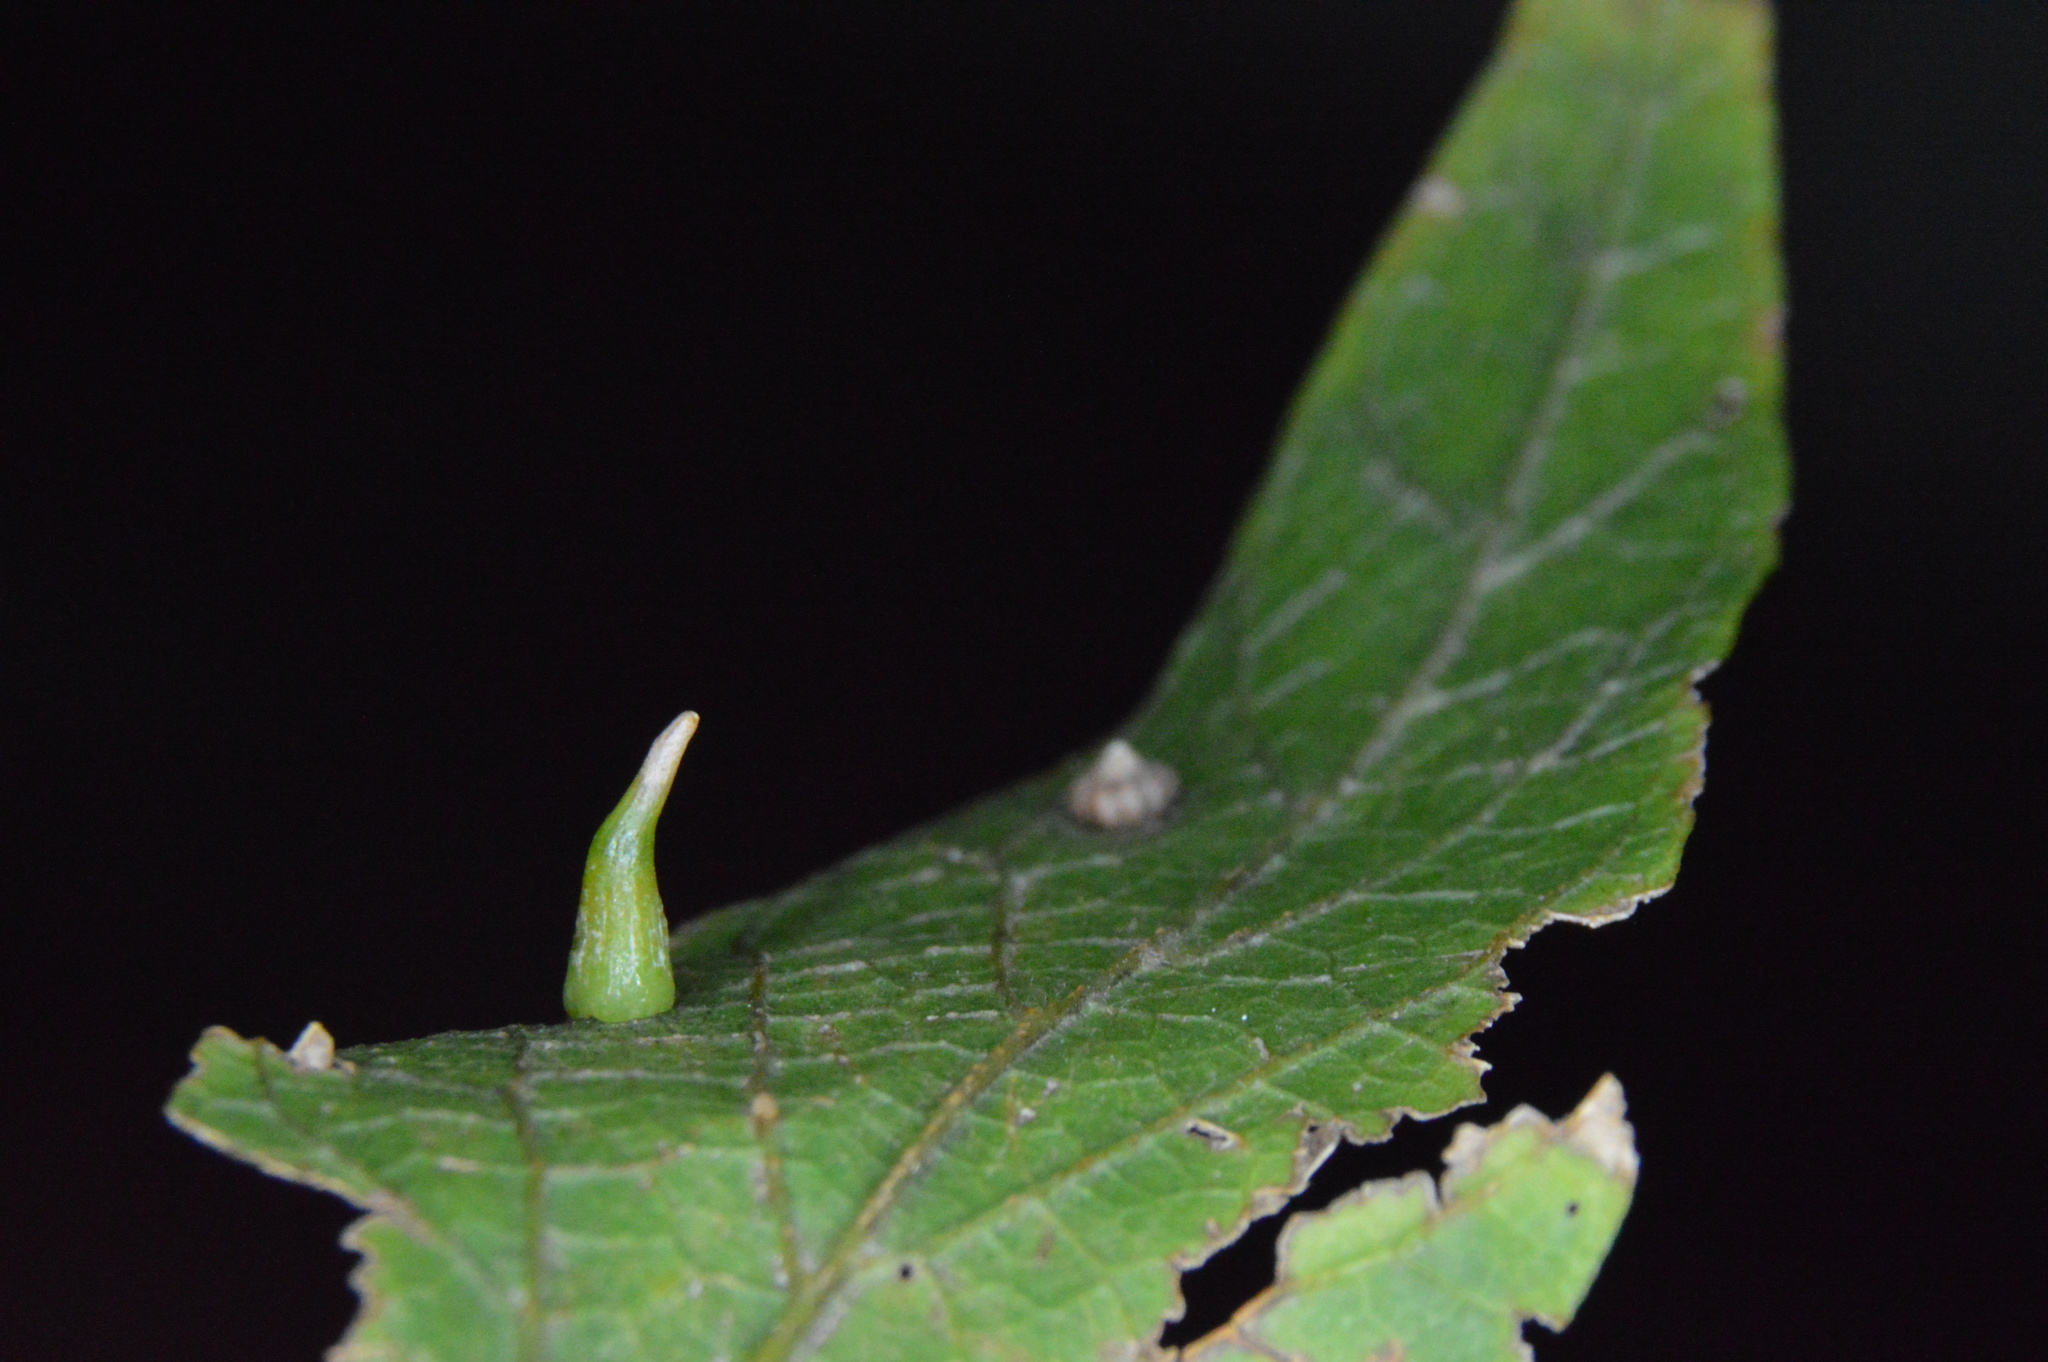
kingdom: Animalia
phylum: Arthropoda
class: Insecta
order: Diptera
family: Cecidomyiidae
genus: Celticecis
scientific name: Celticecis capsularis
